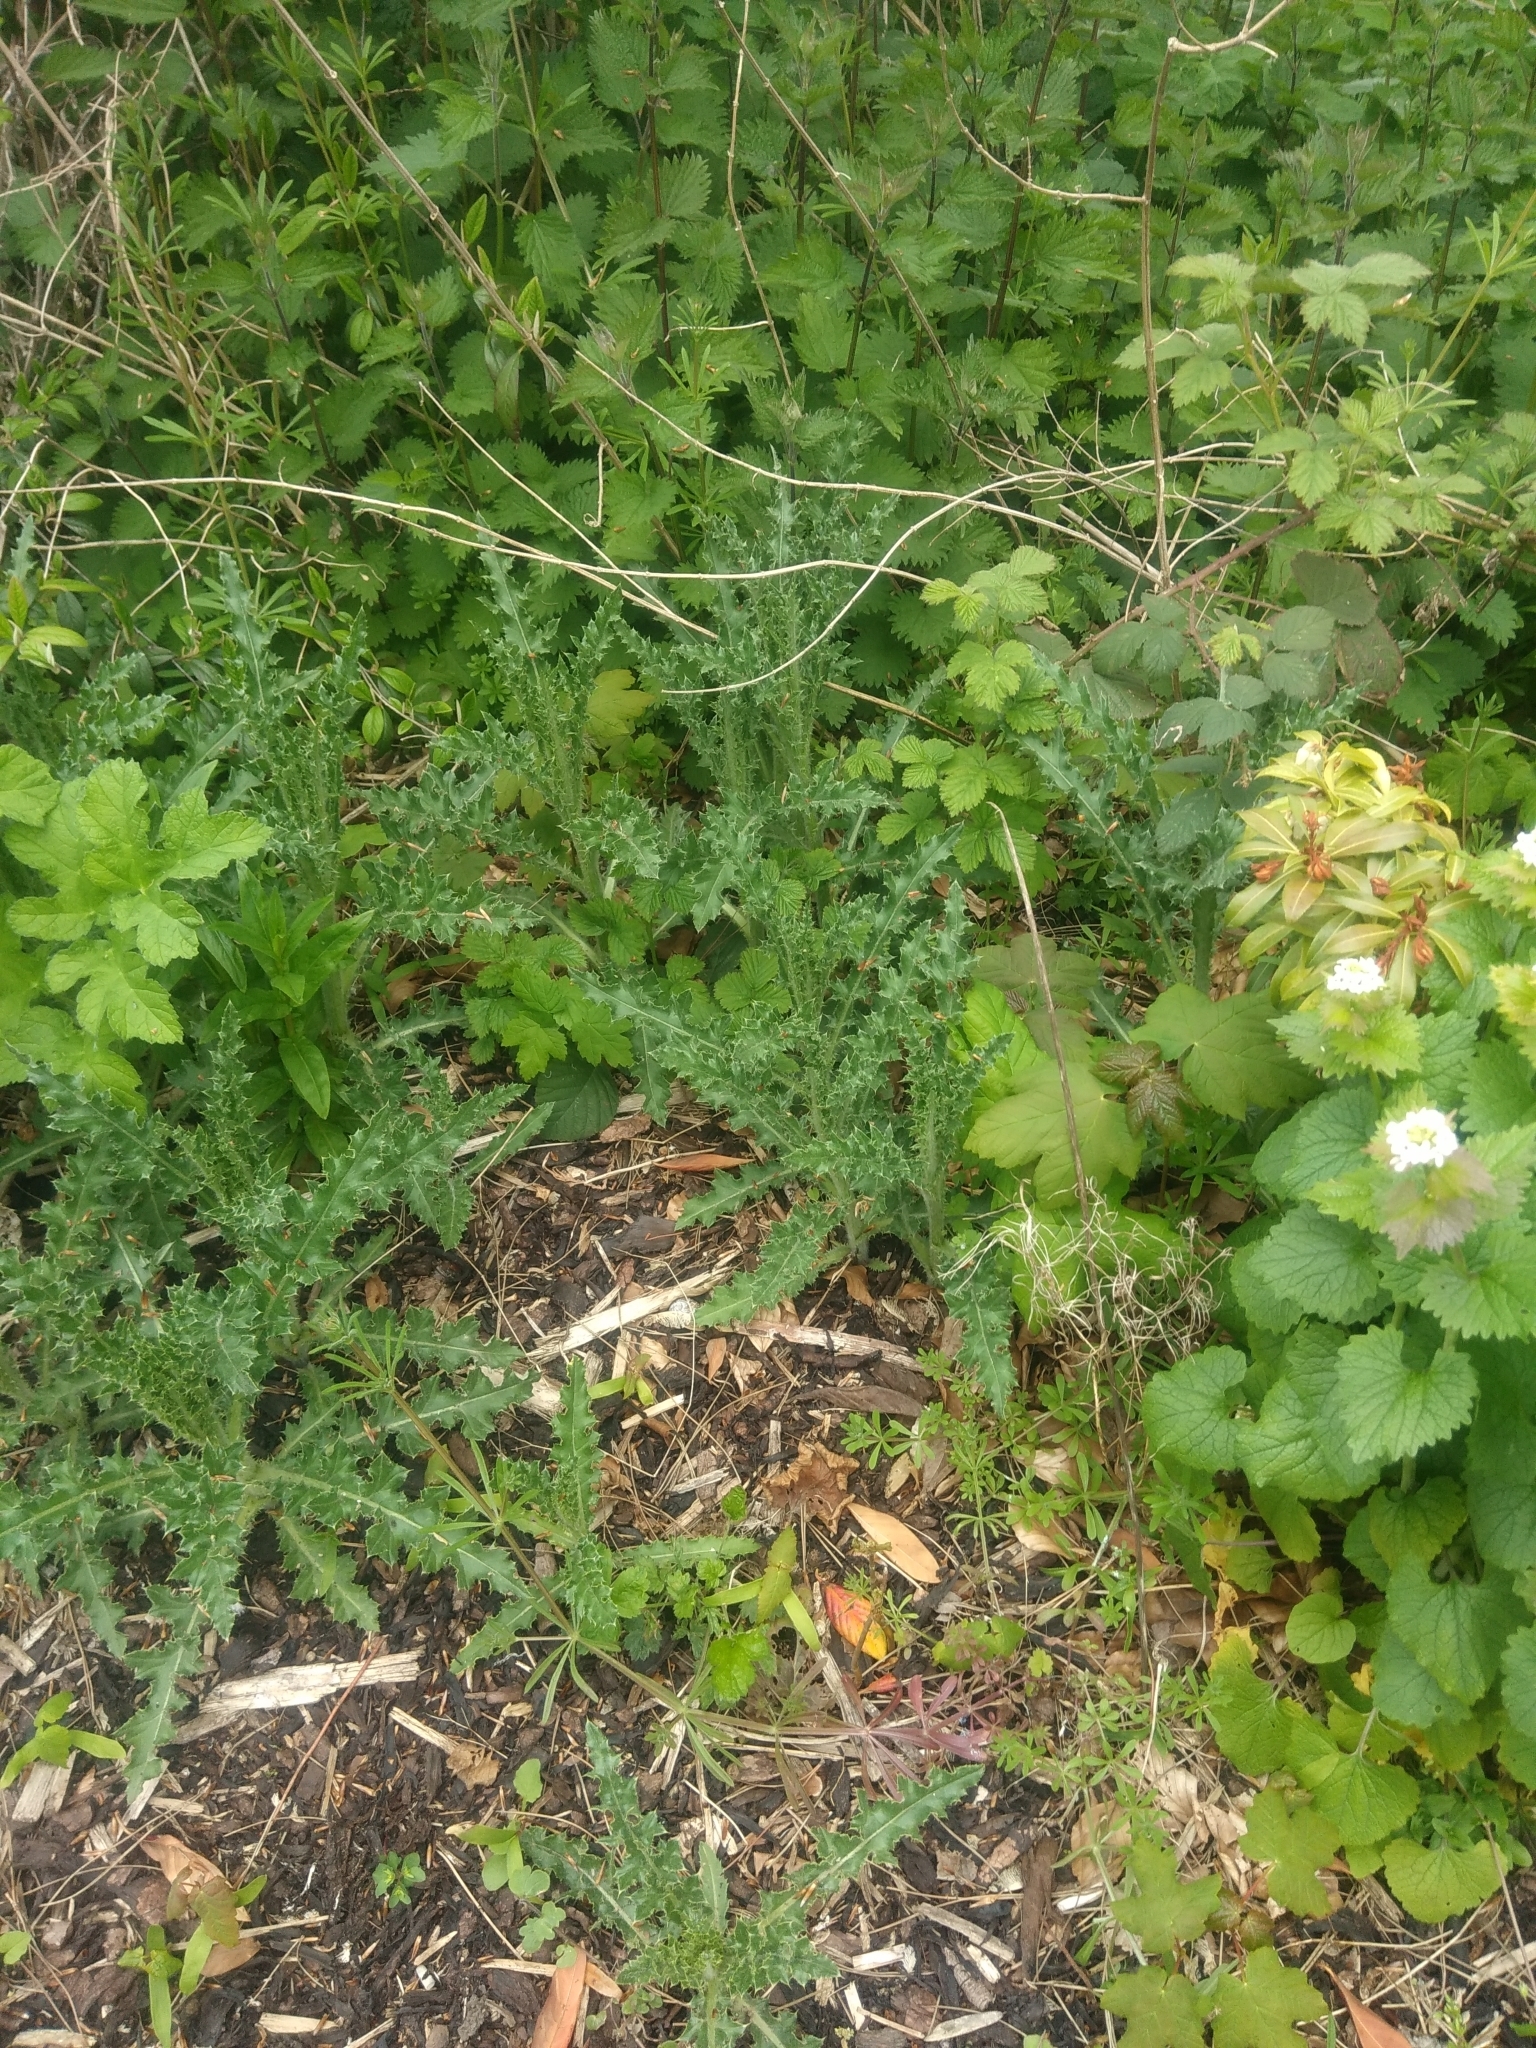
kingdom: Plantae
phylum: Tracheophyta
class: Magnoliopsida
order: Asterales
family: Asteraceae
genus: Cirsium
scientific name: Cirsium arvense
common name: Creeping thistle
